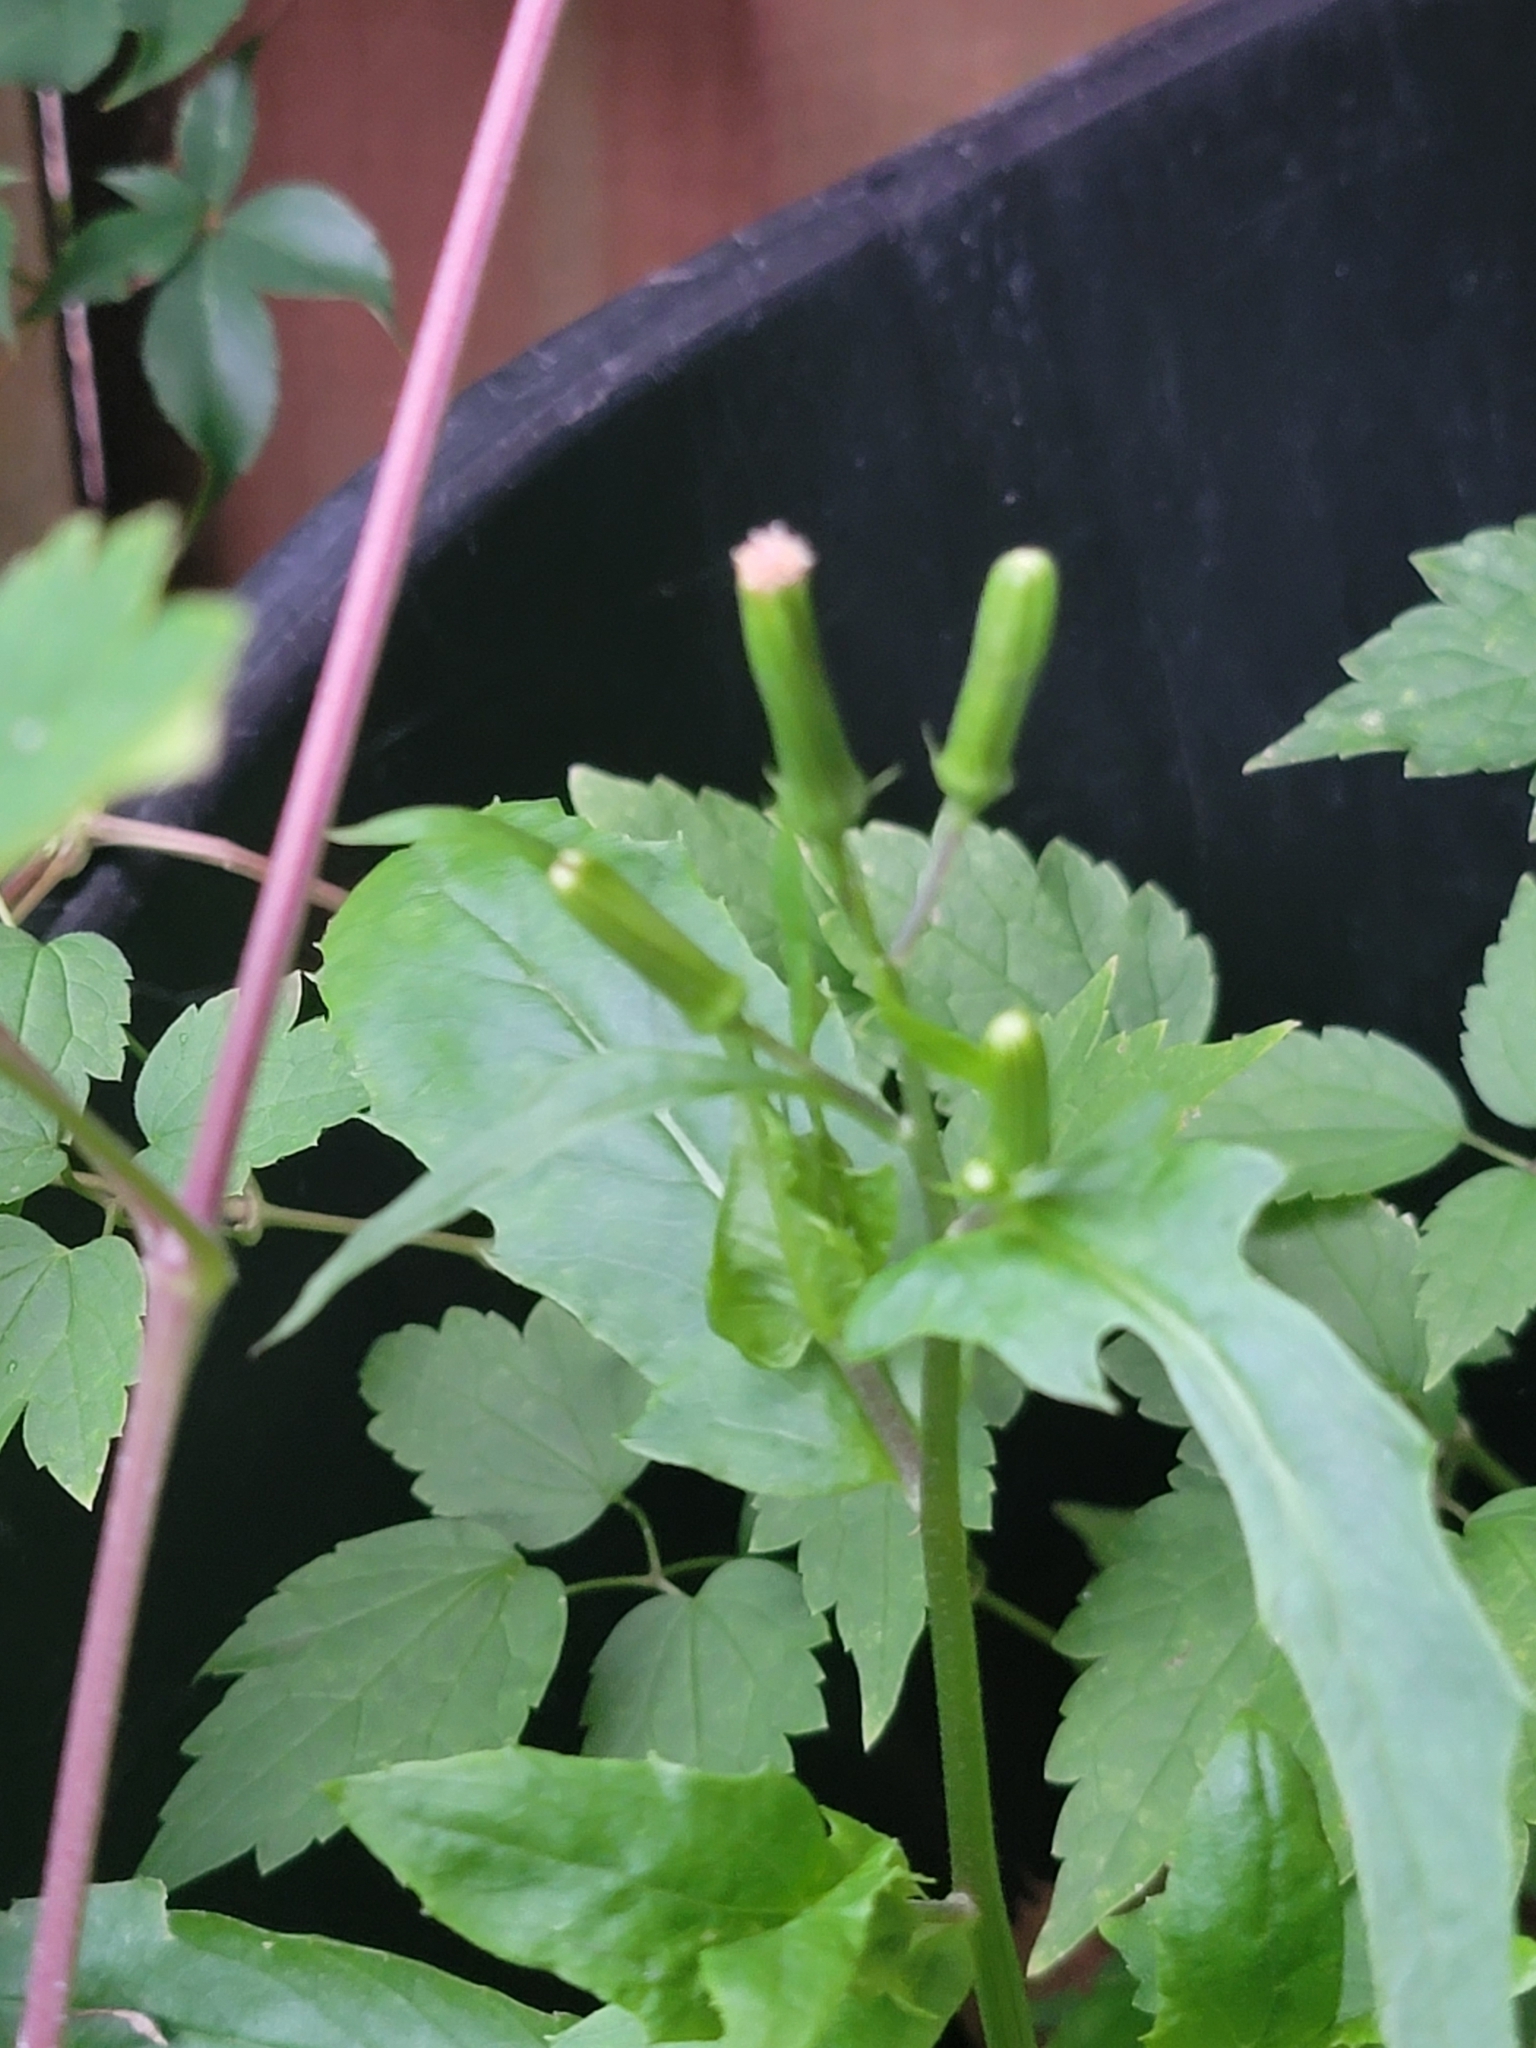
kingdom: Plantae
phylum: Tracheophyta
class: Magnoliopsida
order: Asterales
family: Asteraceae
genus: Erechtites
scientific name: Erechtites hieraciifolius
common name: American burnweed
